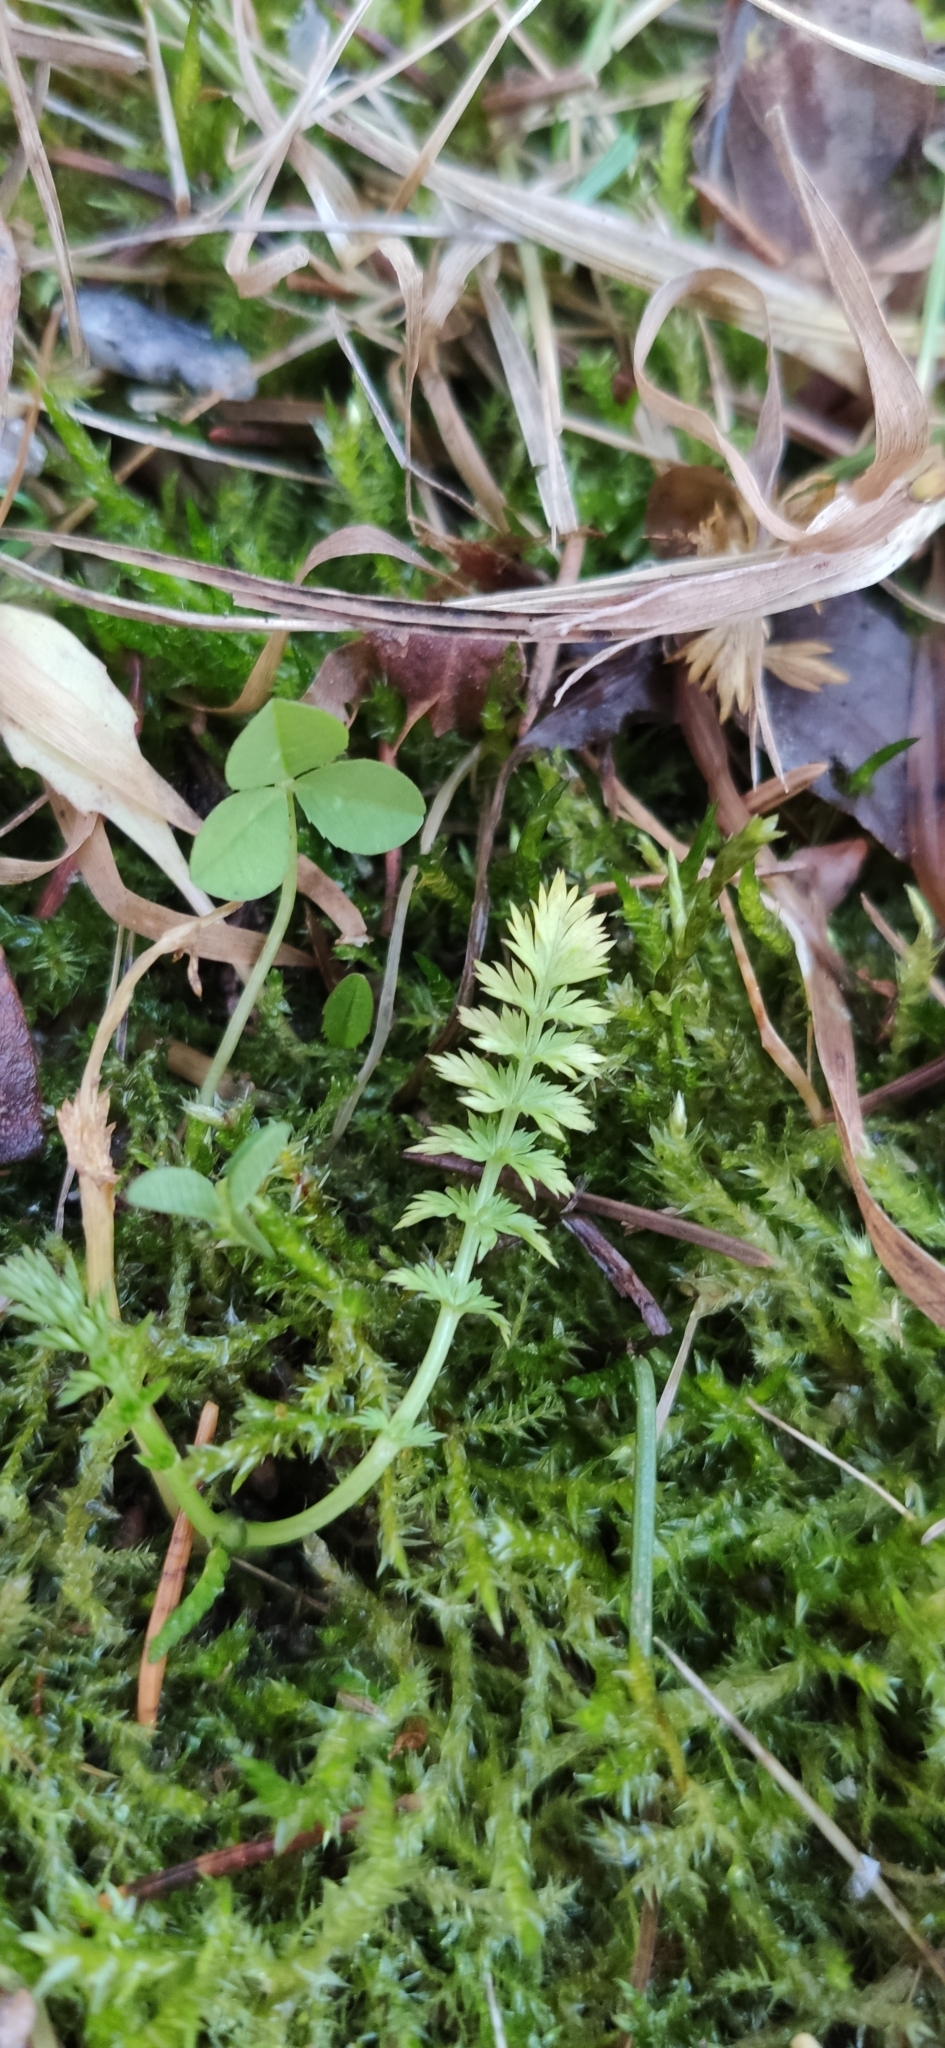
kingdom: Plantae
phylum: Tracheophyta
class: Magnoliopsida
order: Apiales
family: Apiaceae
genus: Carum
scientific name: Carum carvi
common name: Caraway
